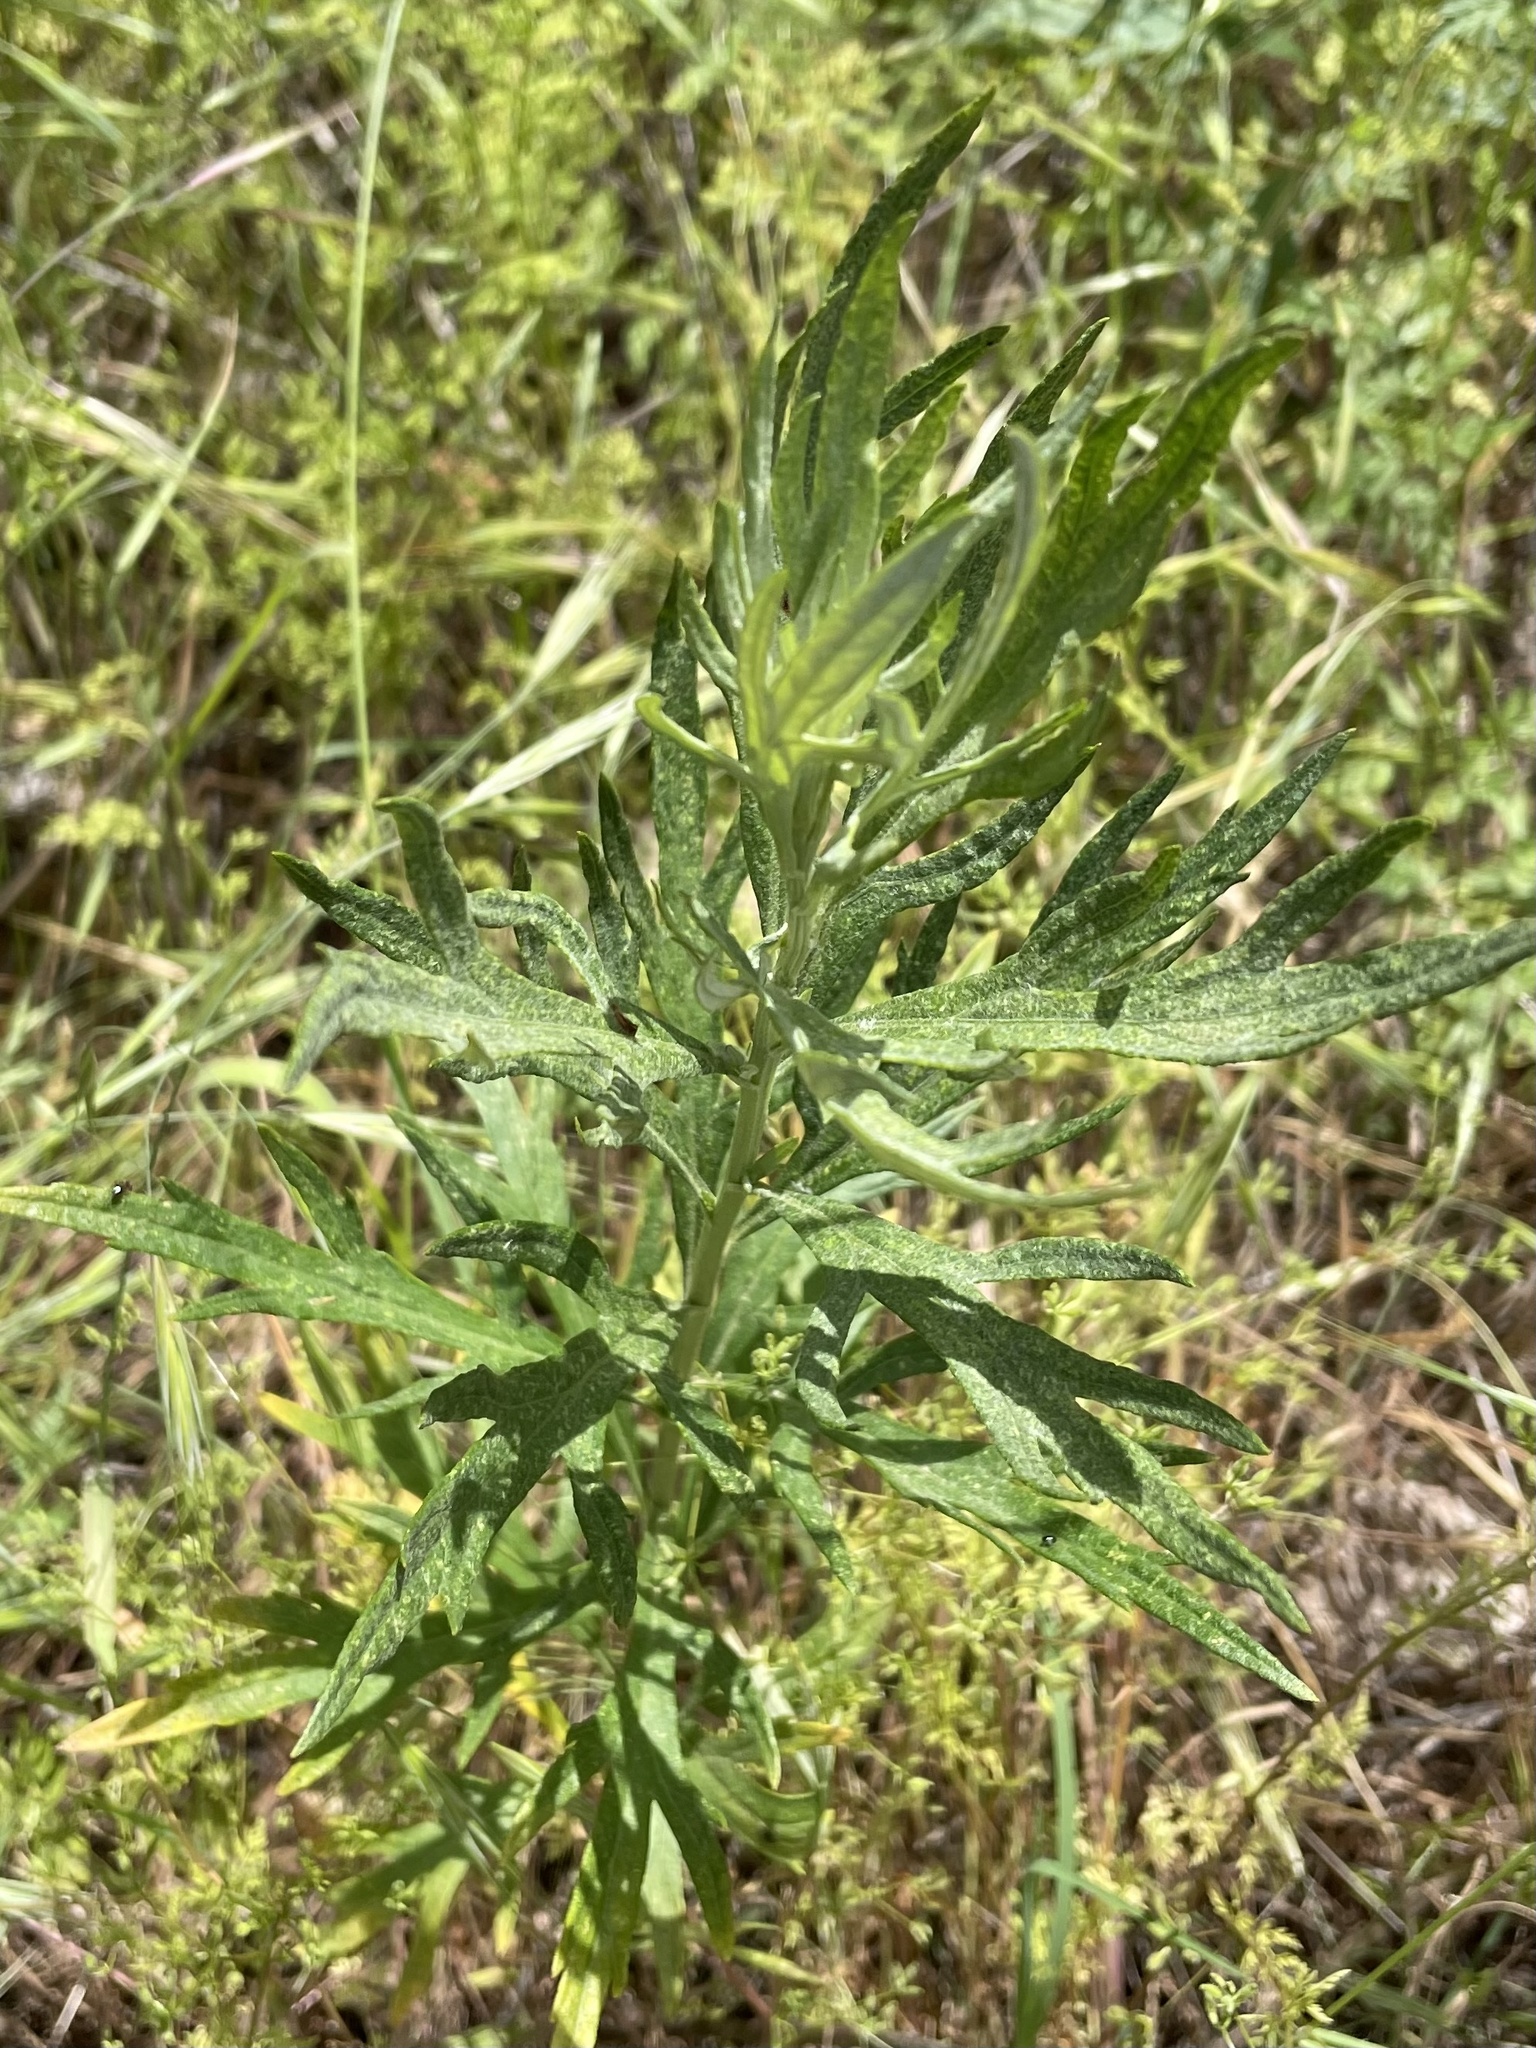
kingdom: Plantae
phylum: Tracheophyta
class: Magnoliopsida
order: Asterales
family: Asteraceae
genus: Artemisia
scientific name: Artemisia douglasiana
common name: Northwest mugwort
